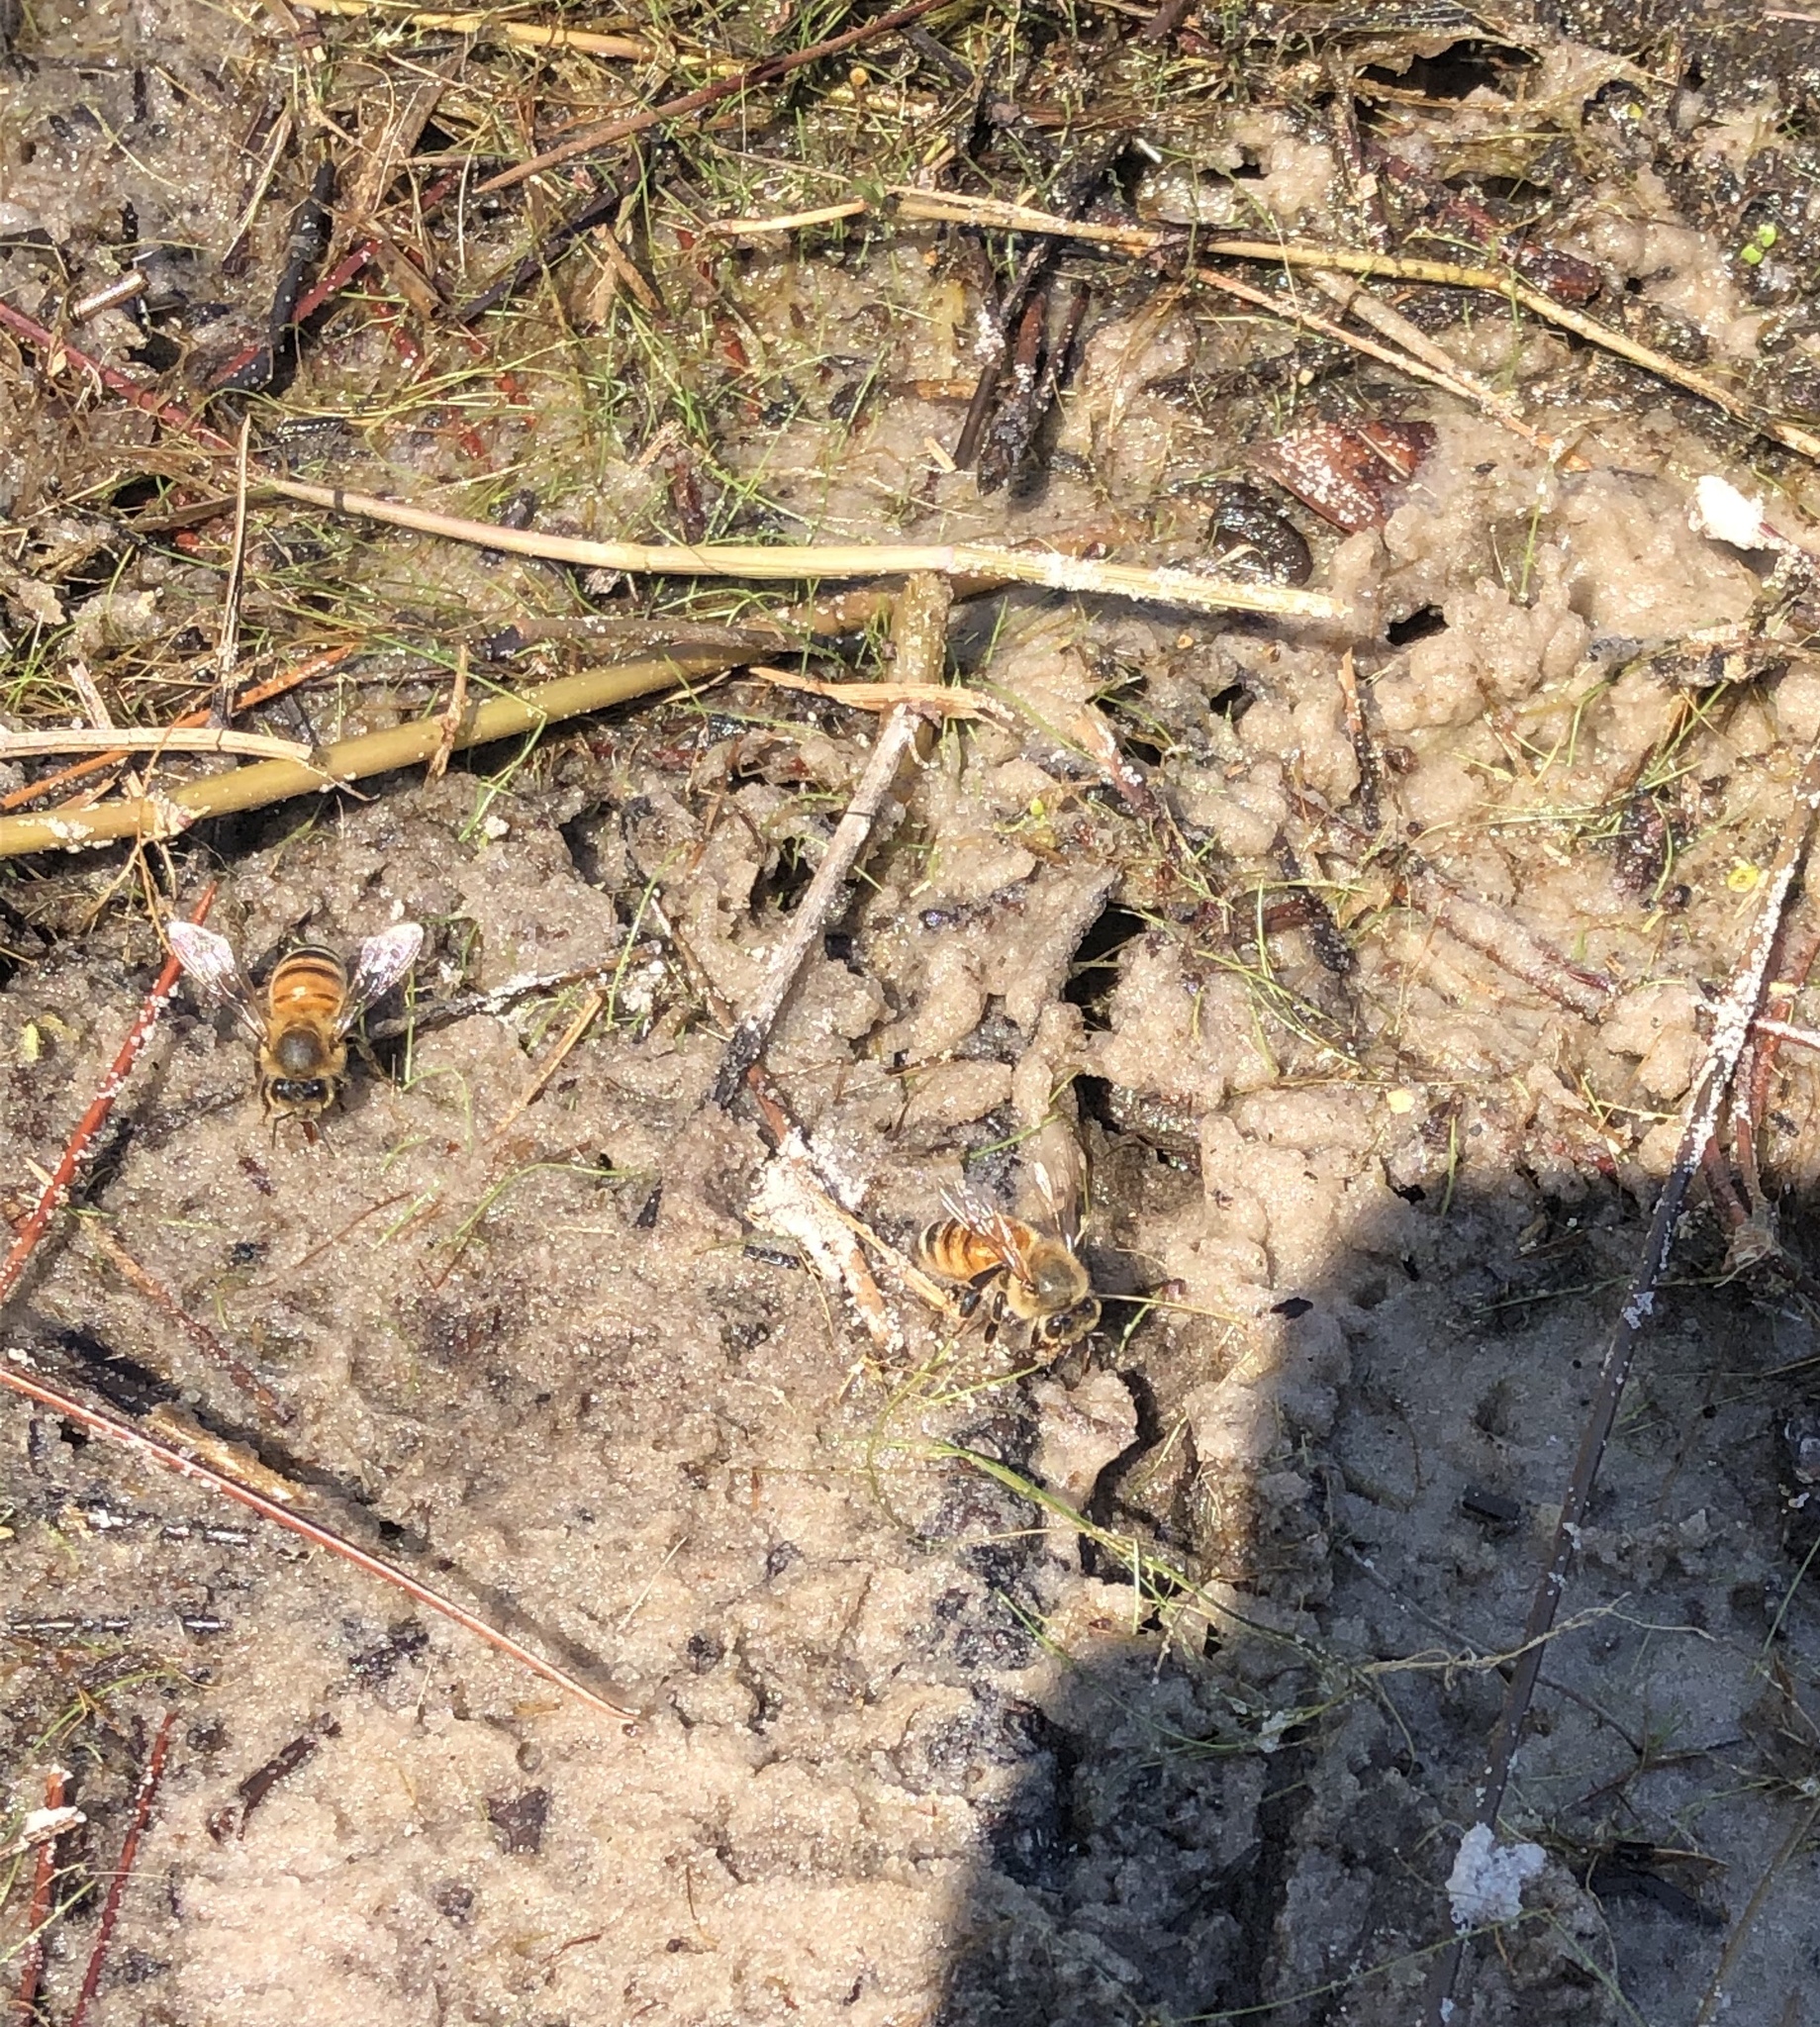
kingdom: Animalia
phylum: Arthropoda
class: Insecta
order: Hymenoptera
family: Apidae
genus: Apis
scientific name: Apis mellifera
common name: Honey bee
